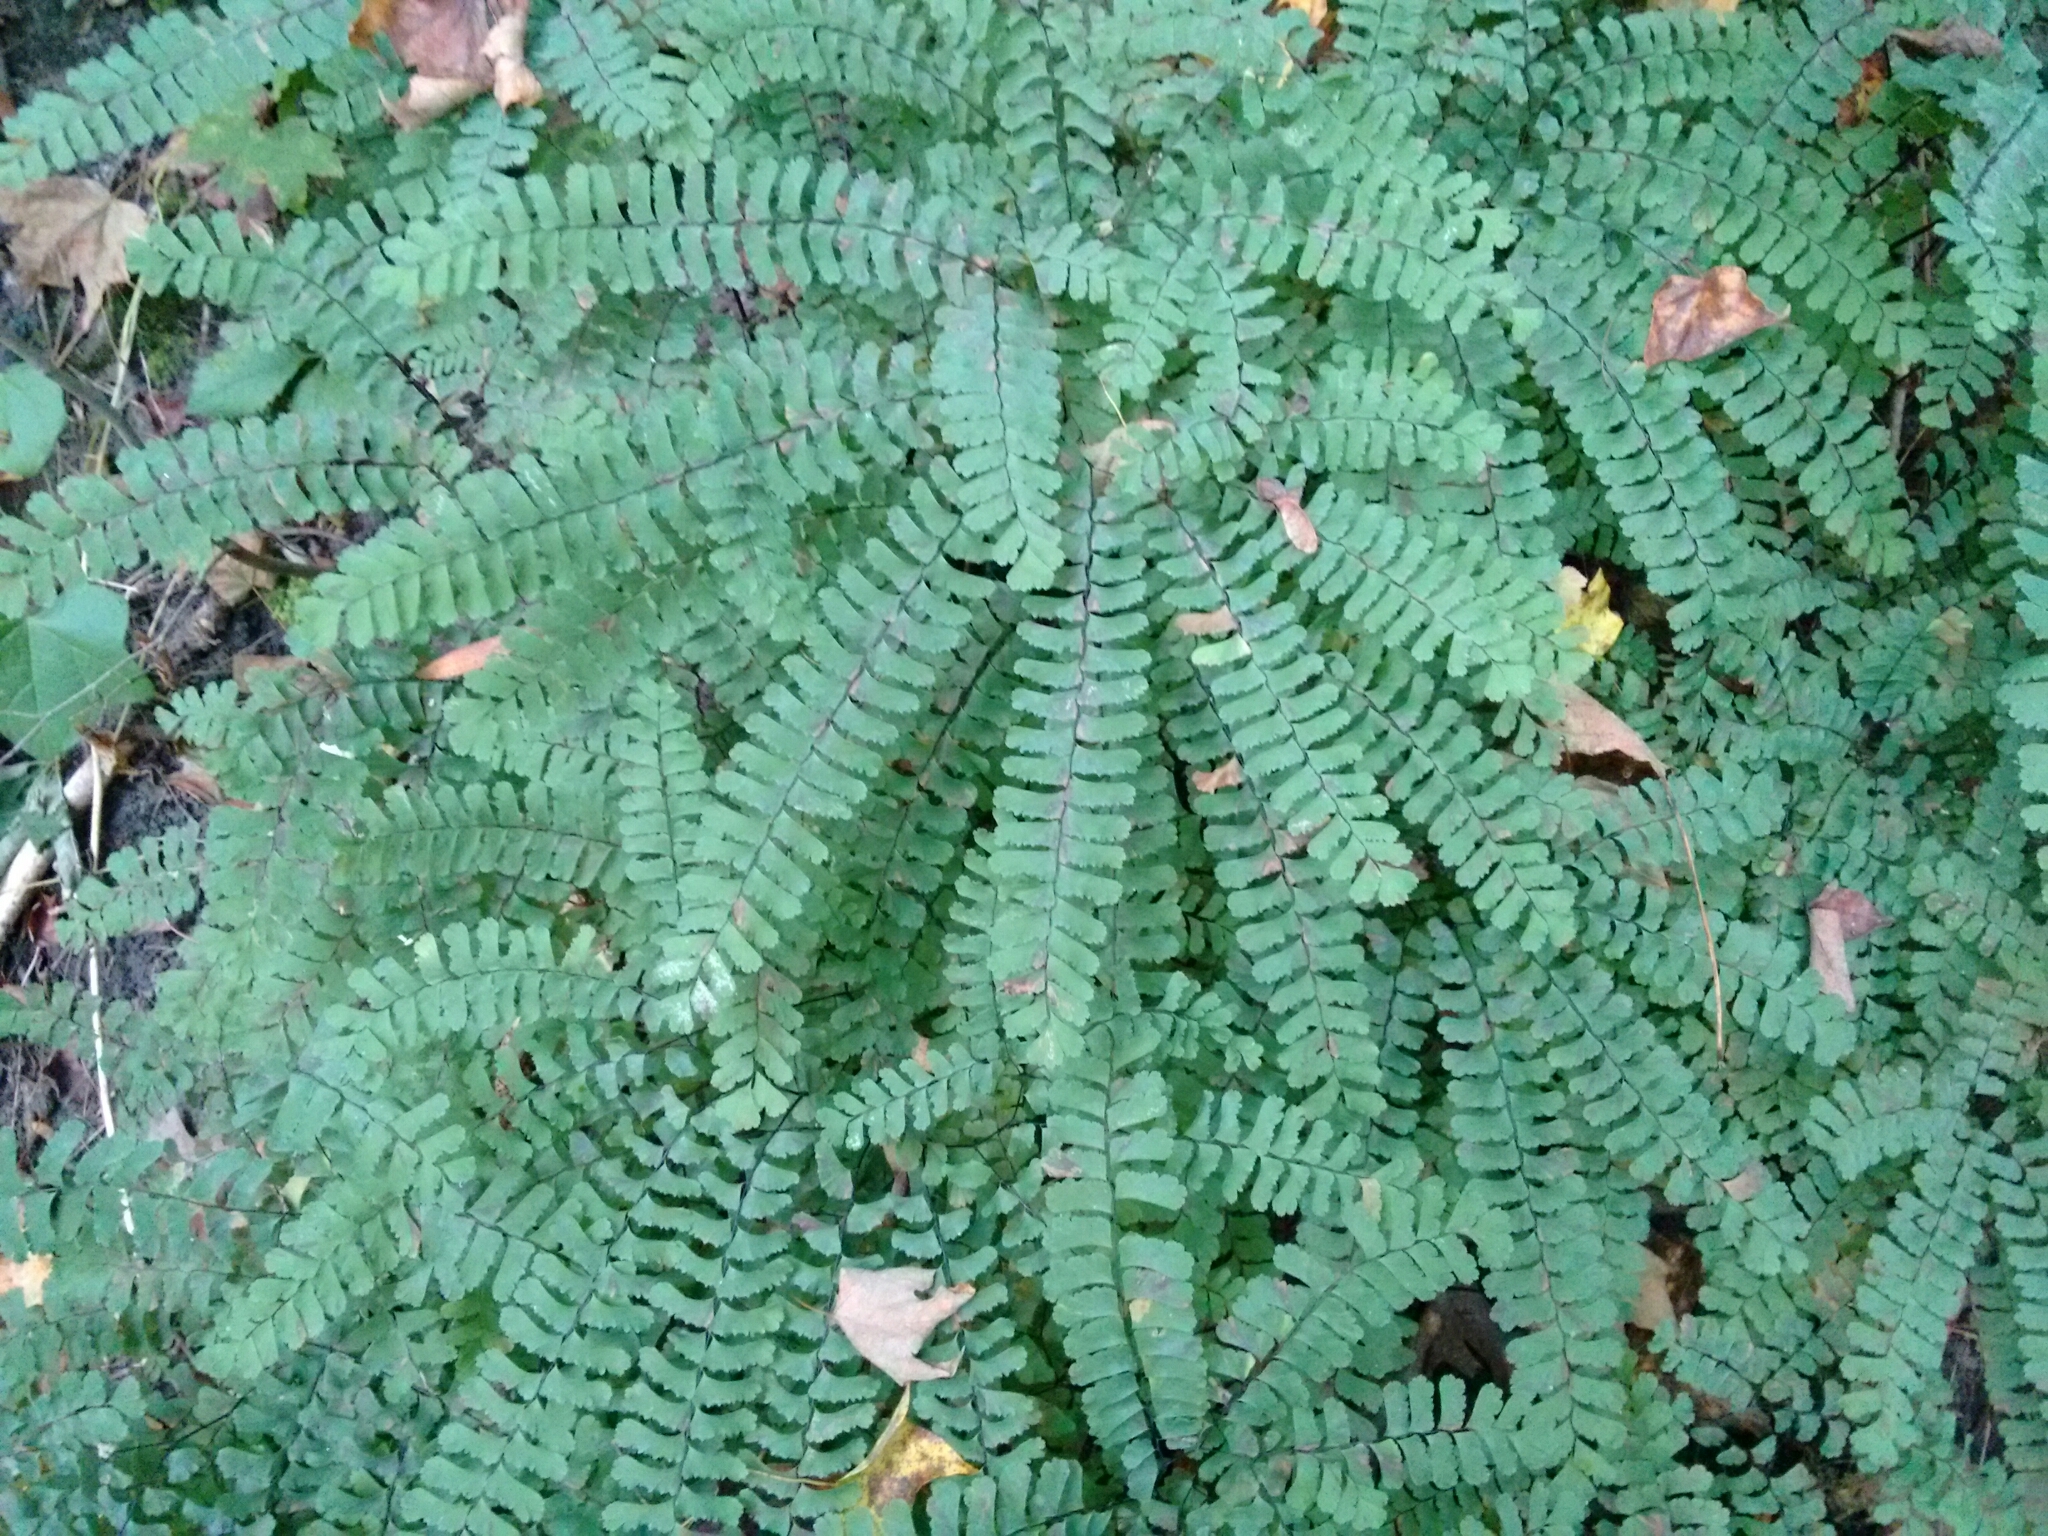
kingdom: Plantae
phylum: Tracheophyta
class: Polypodiopsida
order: Polypodiales
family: Pteridaceae
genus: Adiantum
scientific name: Adiantum pedatum
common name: Five-finger fern
